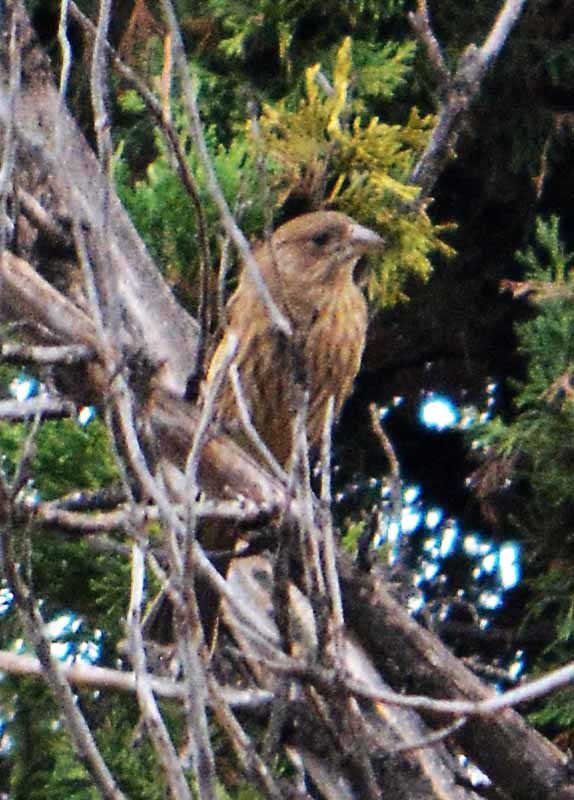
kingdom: Animalia
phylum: Chordata
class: Aves
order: Passeriformes
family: Fringillidae
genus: Haemorhous
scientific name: Haemorhous mexicanus
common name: House finch
